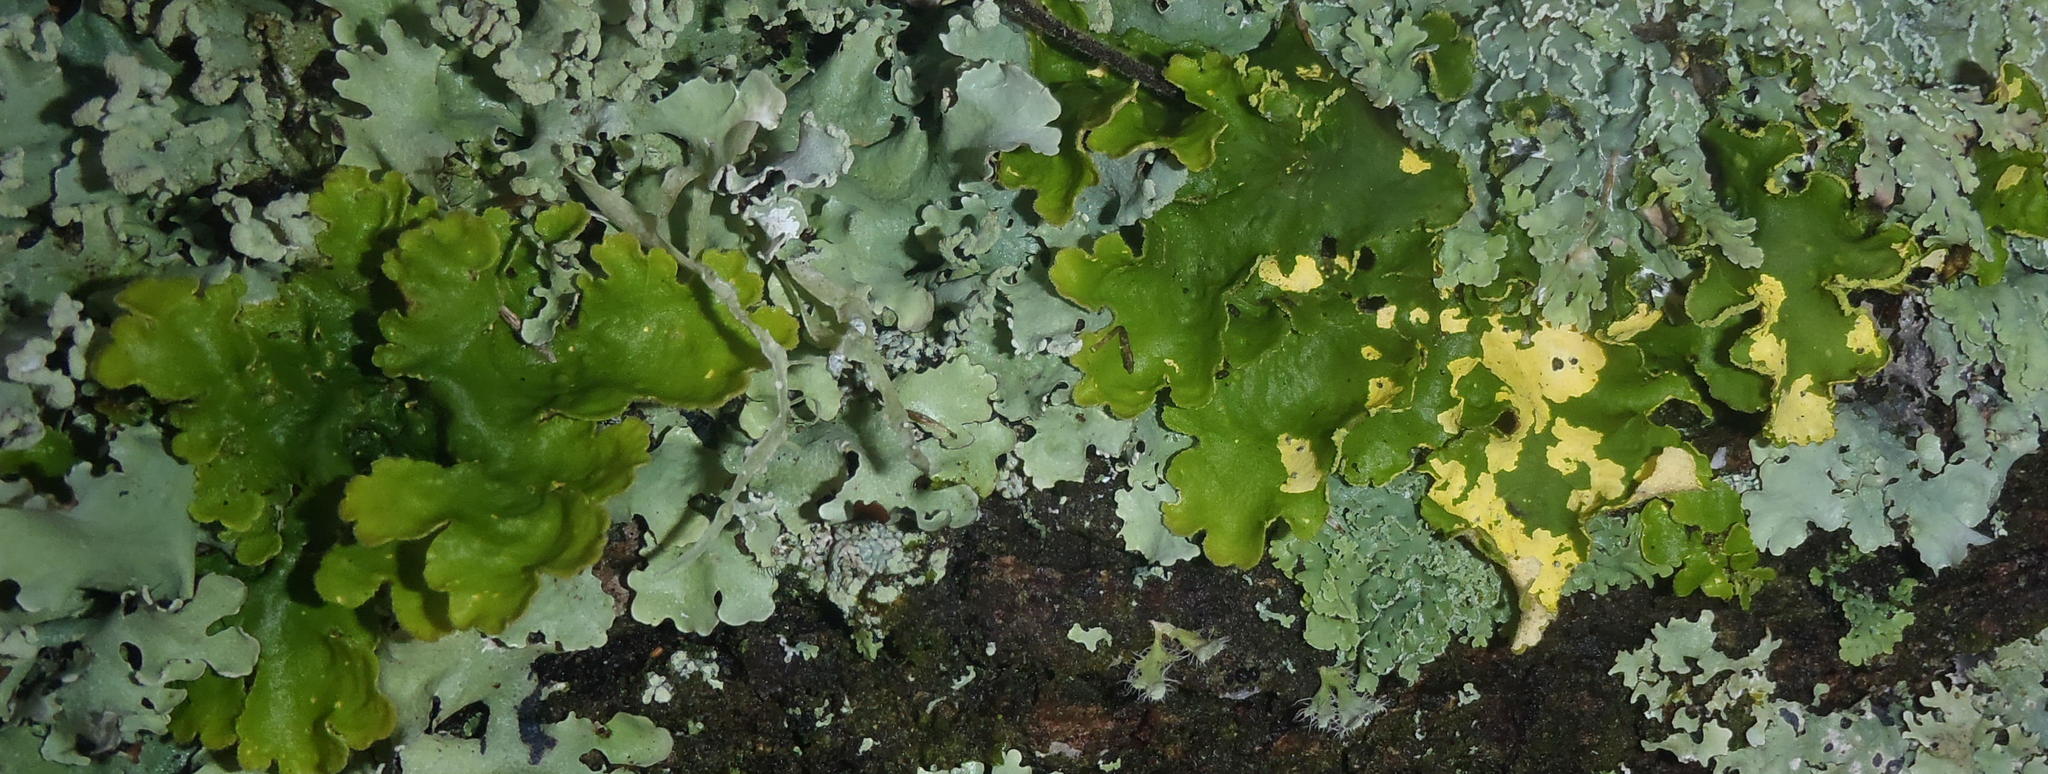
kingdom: Fungi
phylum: Ascomycota
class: Lecanoromycetes
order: Peltigerales
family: Lobariaceae
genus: Pseudocyphellaria
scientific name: Pseudocyphellaria aurata
